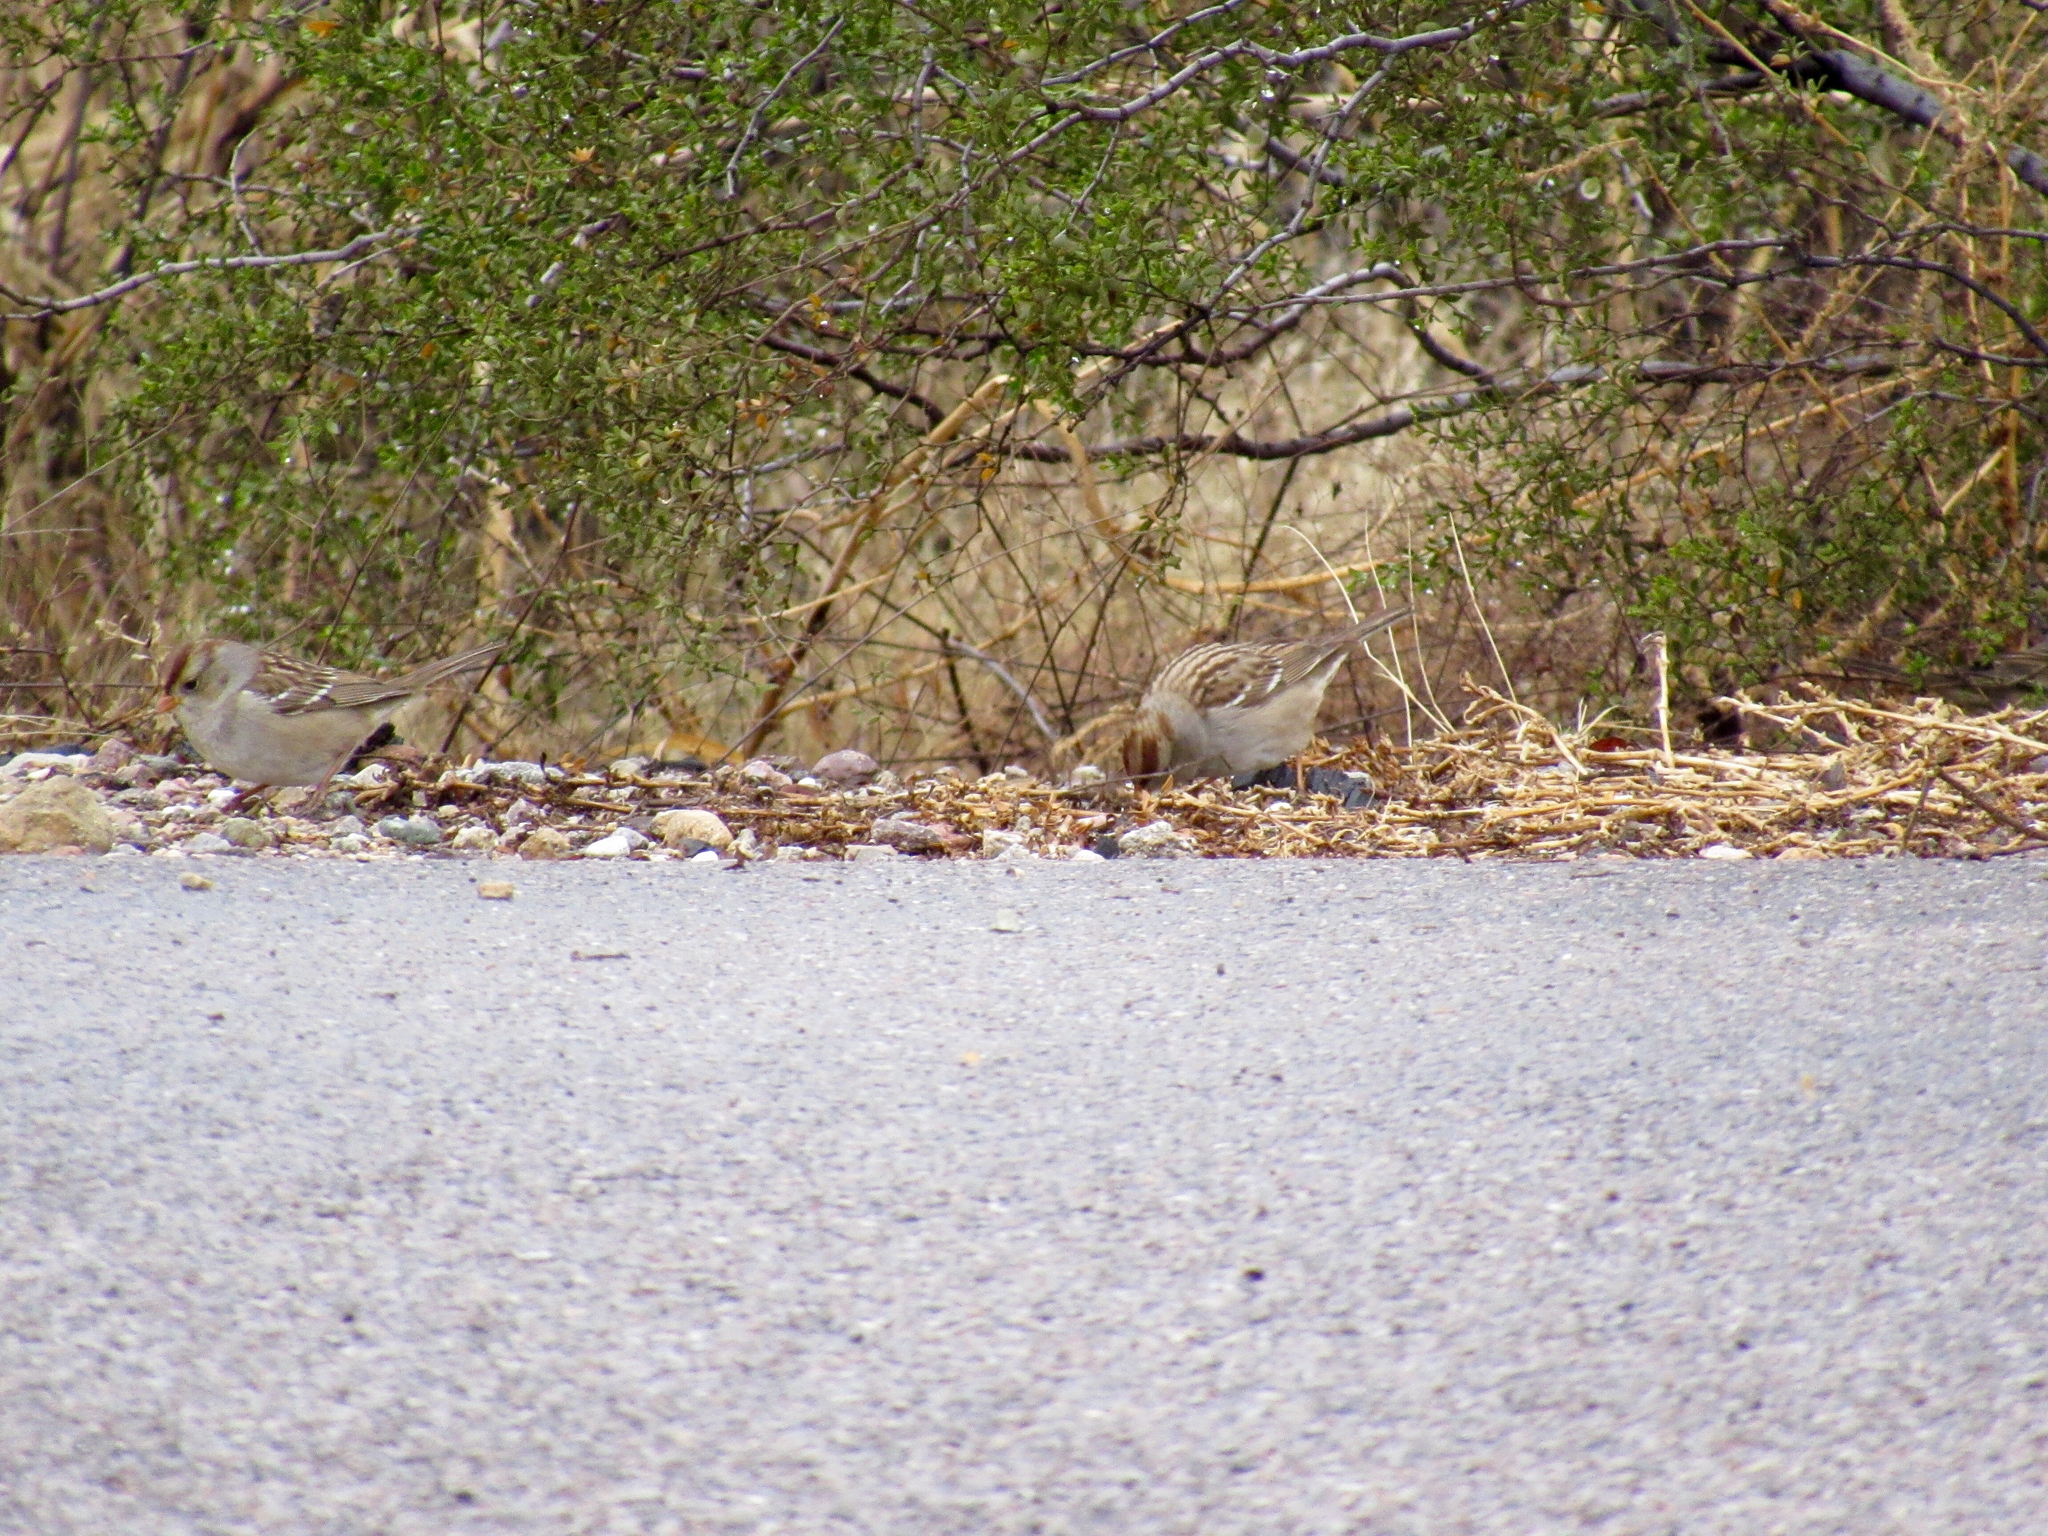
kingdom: Animalia
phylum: Chordata
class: Aves
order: Passeriformes
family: Passerellidae
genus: Zonotrichia
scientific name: Zonotrichia leucophrys
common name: White-crowned sparrow
